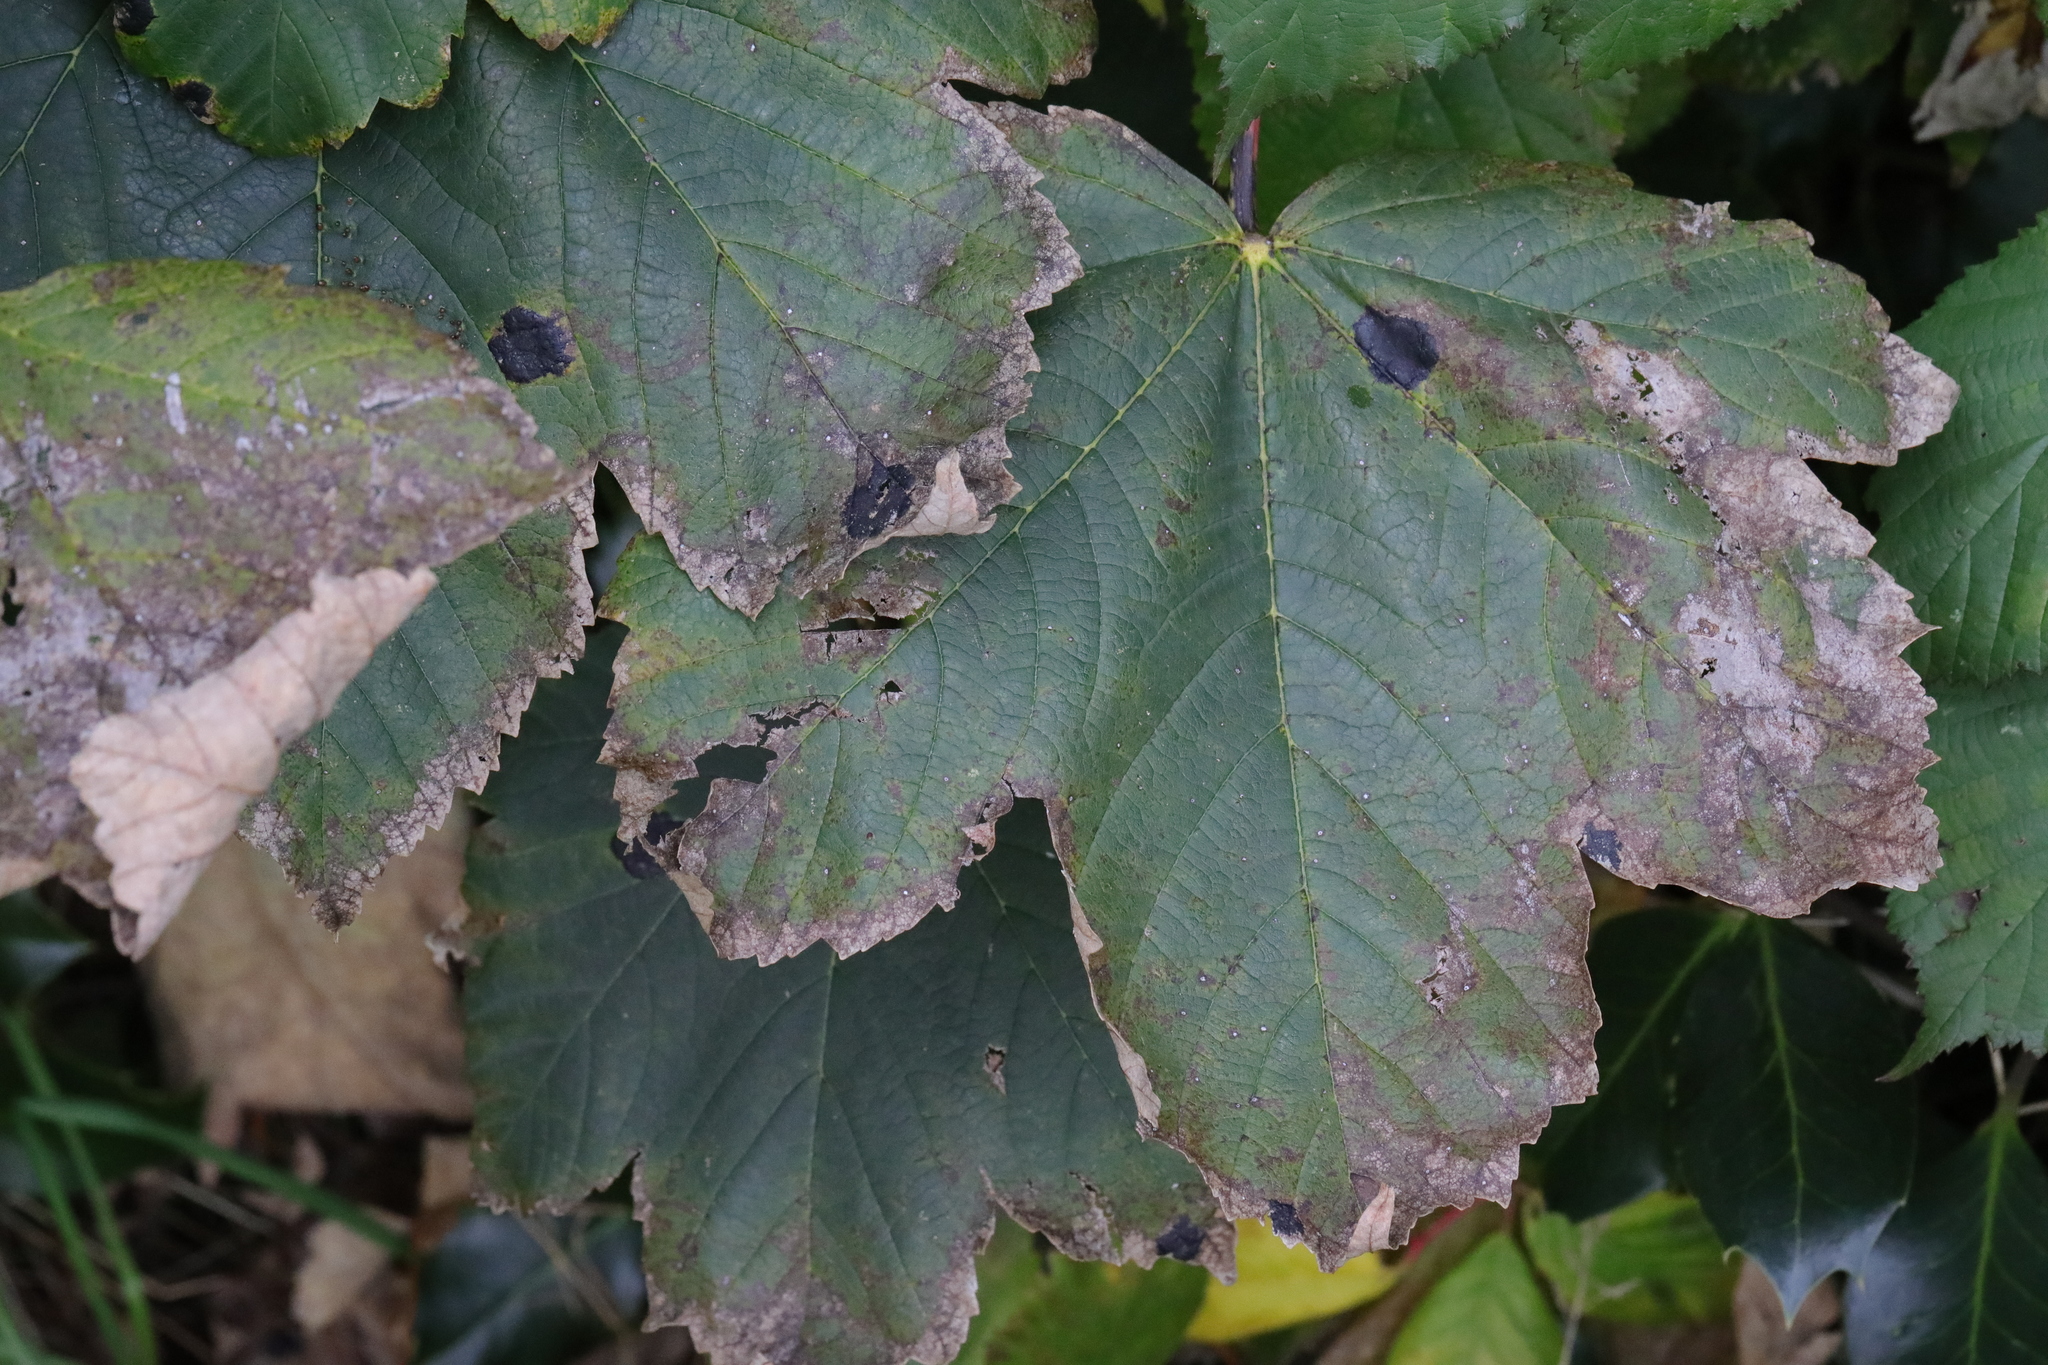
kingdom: Fungi
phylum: Ascomycota
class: Leotiomycetes
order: Rhytismatales
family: Rhytismataceae
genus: Rhytisma
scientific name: Rhytisma acerinum
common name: European tar spot
